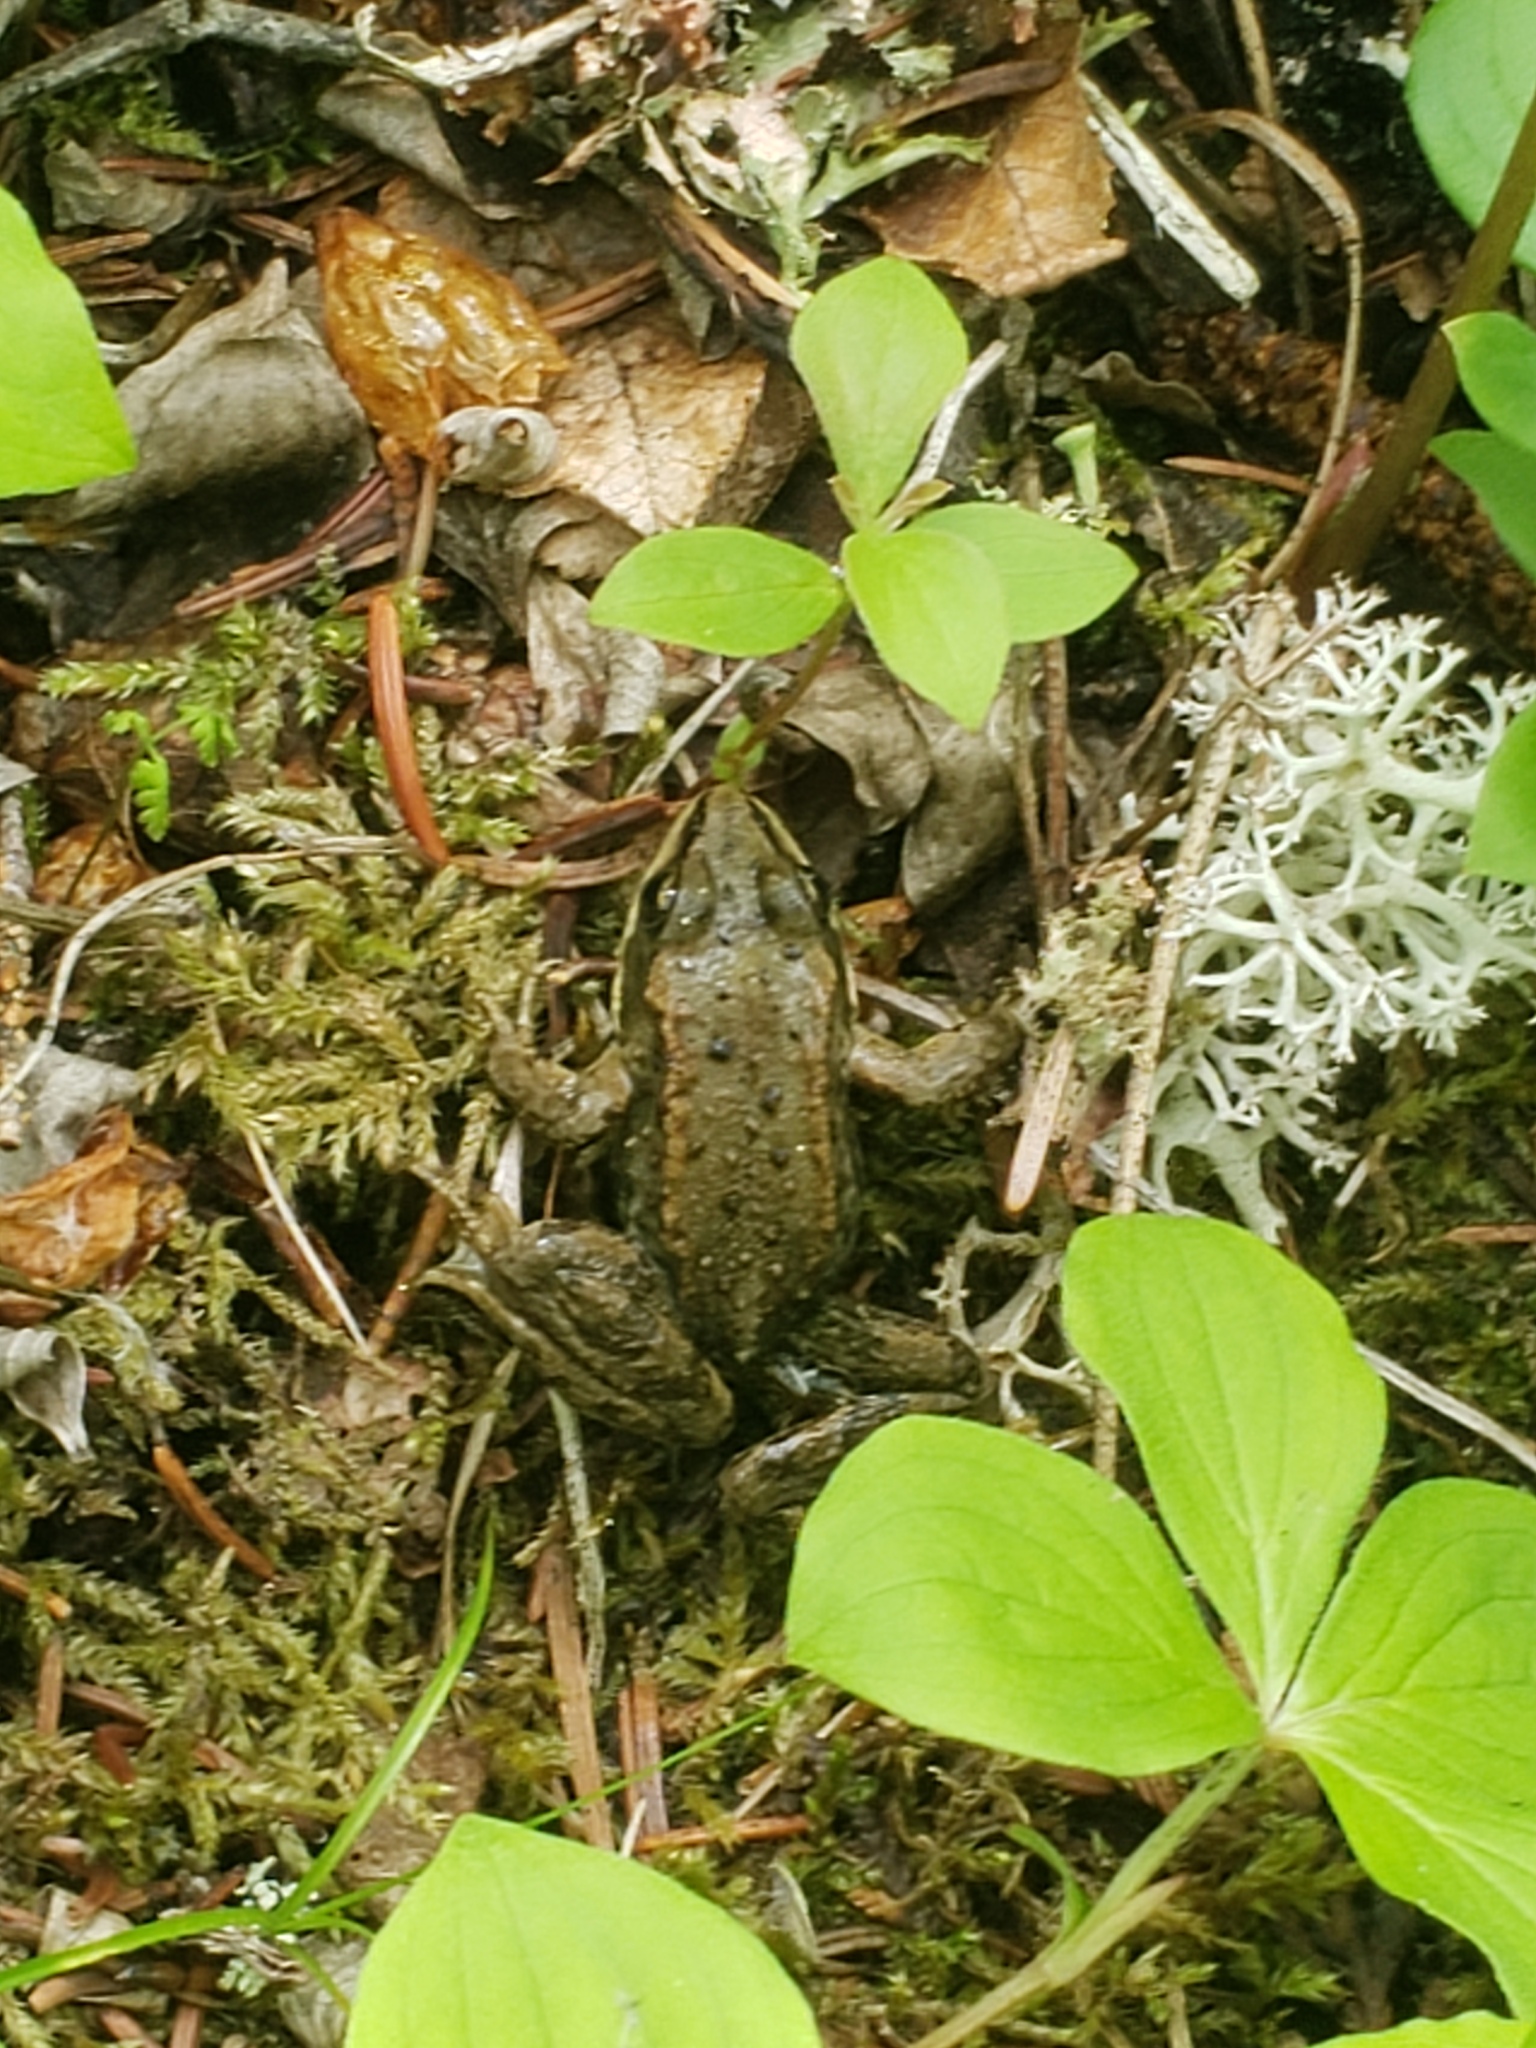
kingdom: Animalia
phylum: Chordata
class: Amphibia
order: Anura
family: Ranidae
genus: Rana
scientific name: Rana luteiventris
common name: Columbia spotted frog
